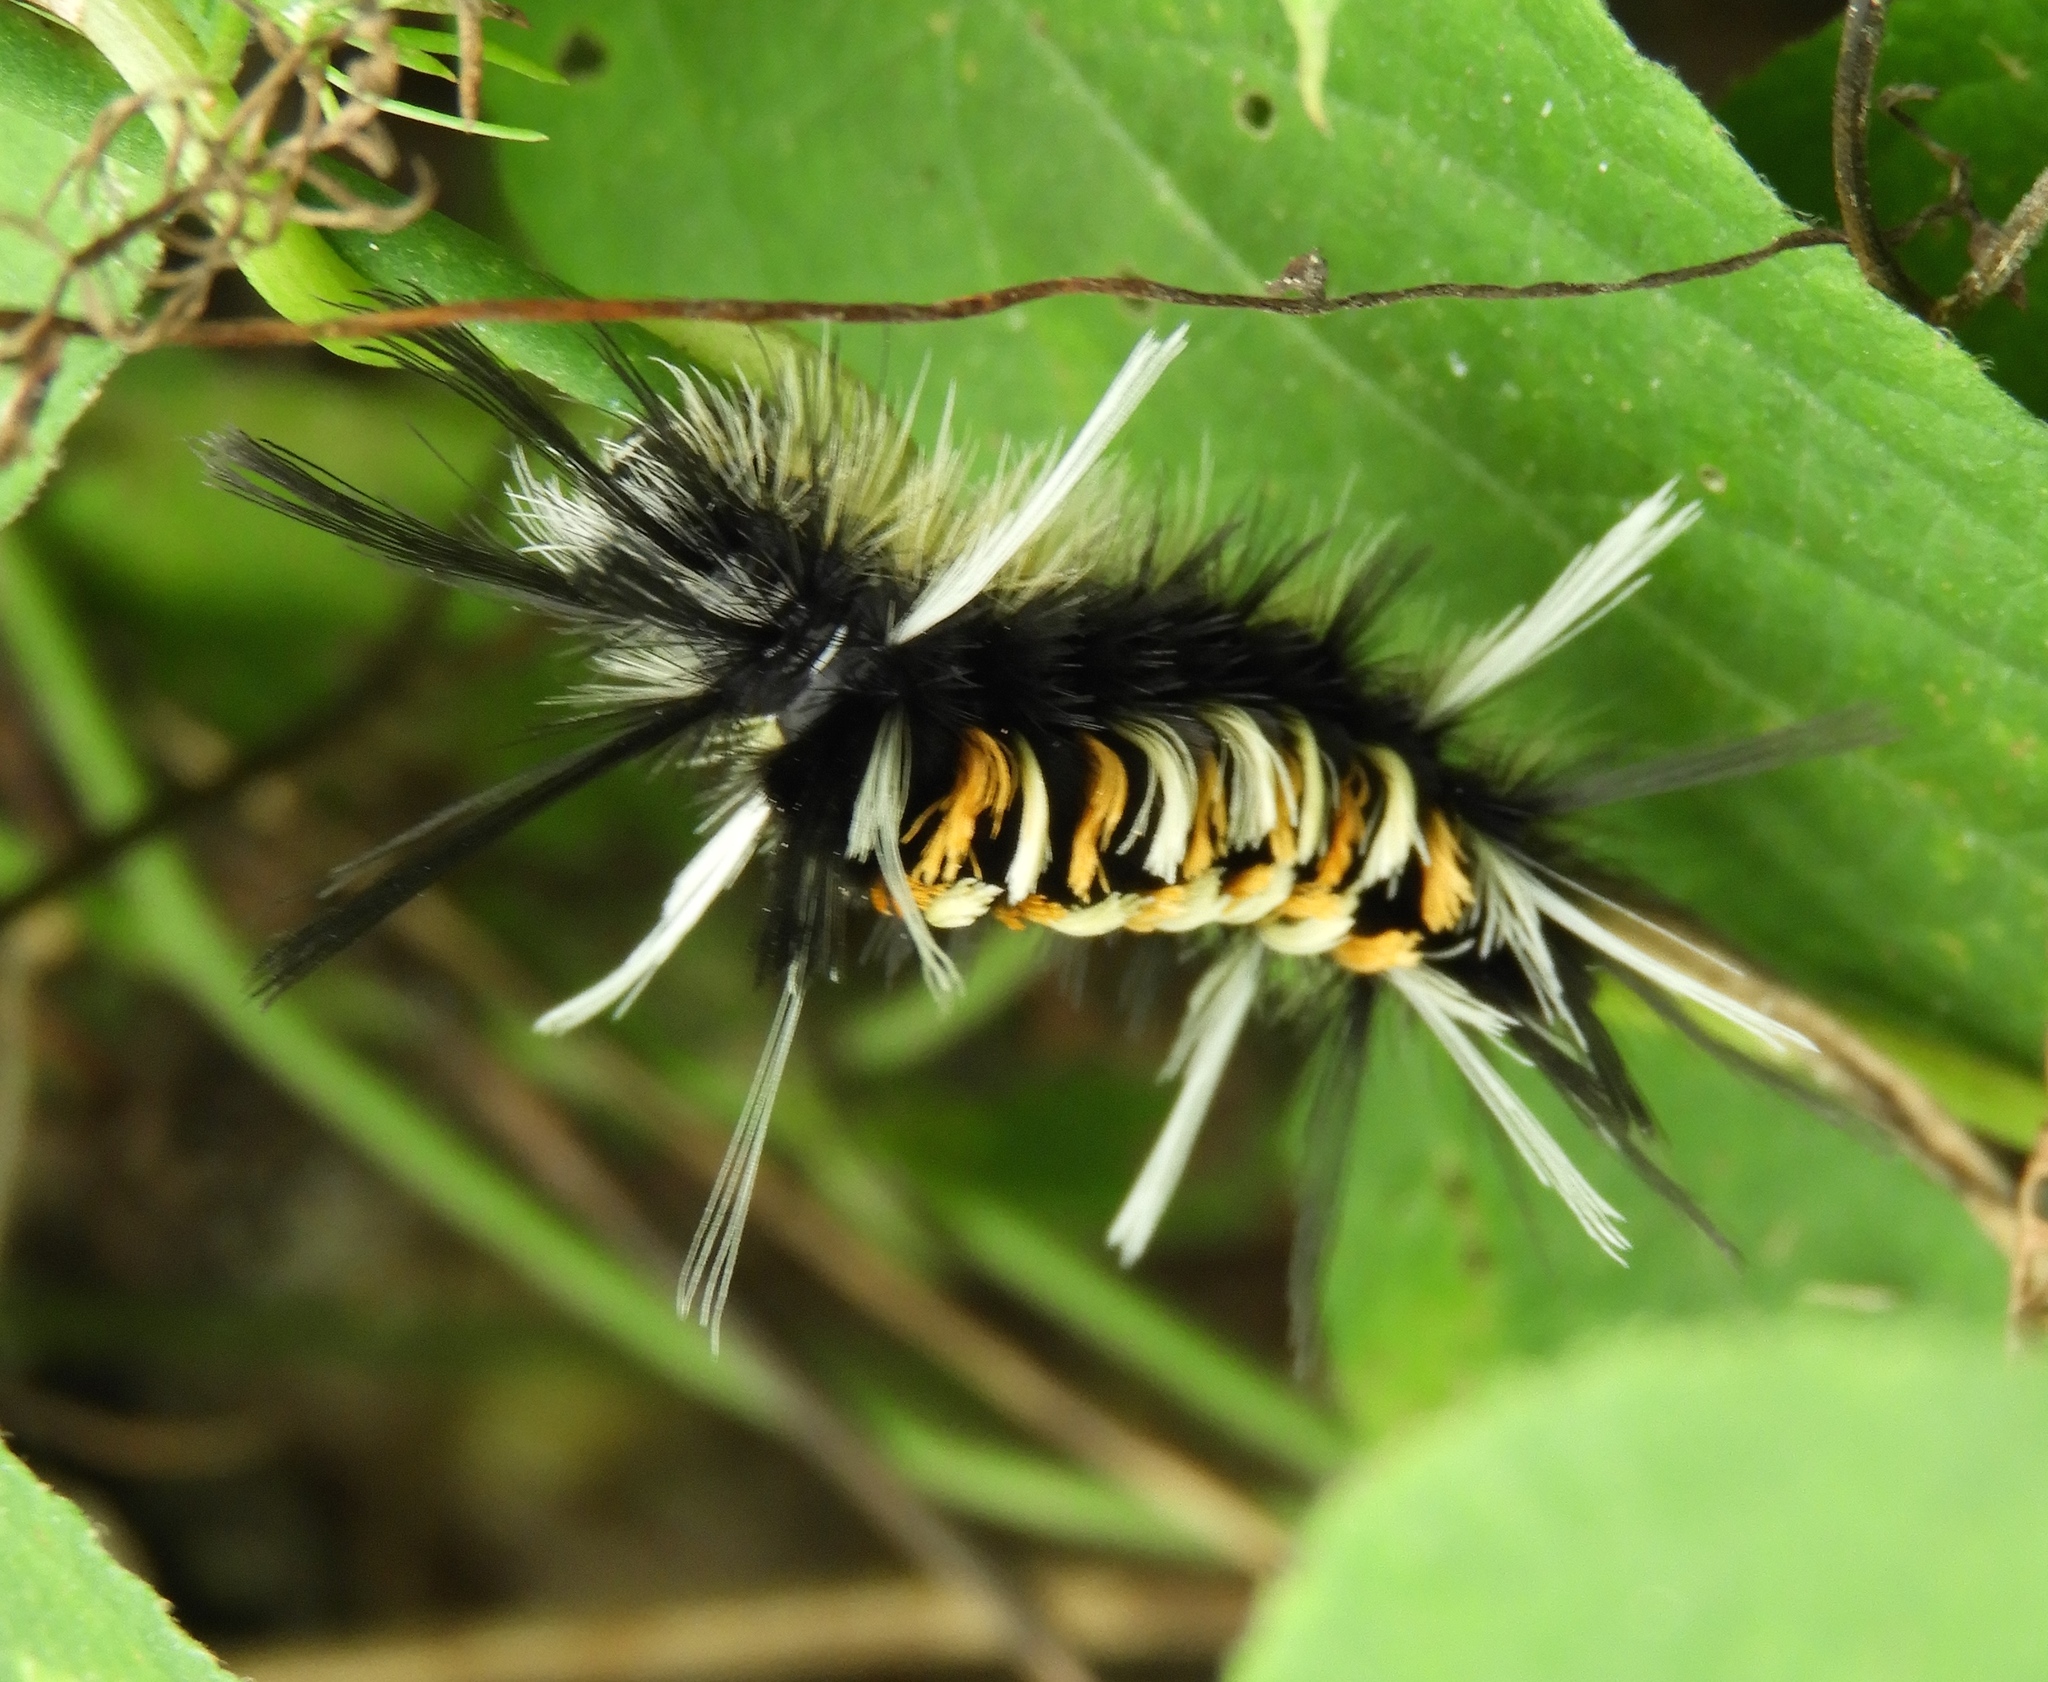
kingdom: Animalia
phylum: Arthropoda
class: Insecta
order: Lepidoptera
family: Erebidae
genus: Euchaetes
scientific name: Euchaetes antica
